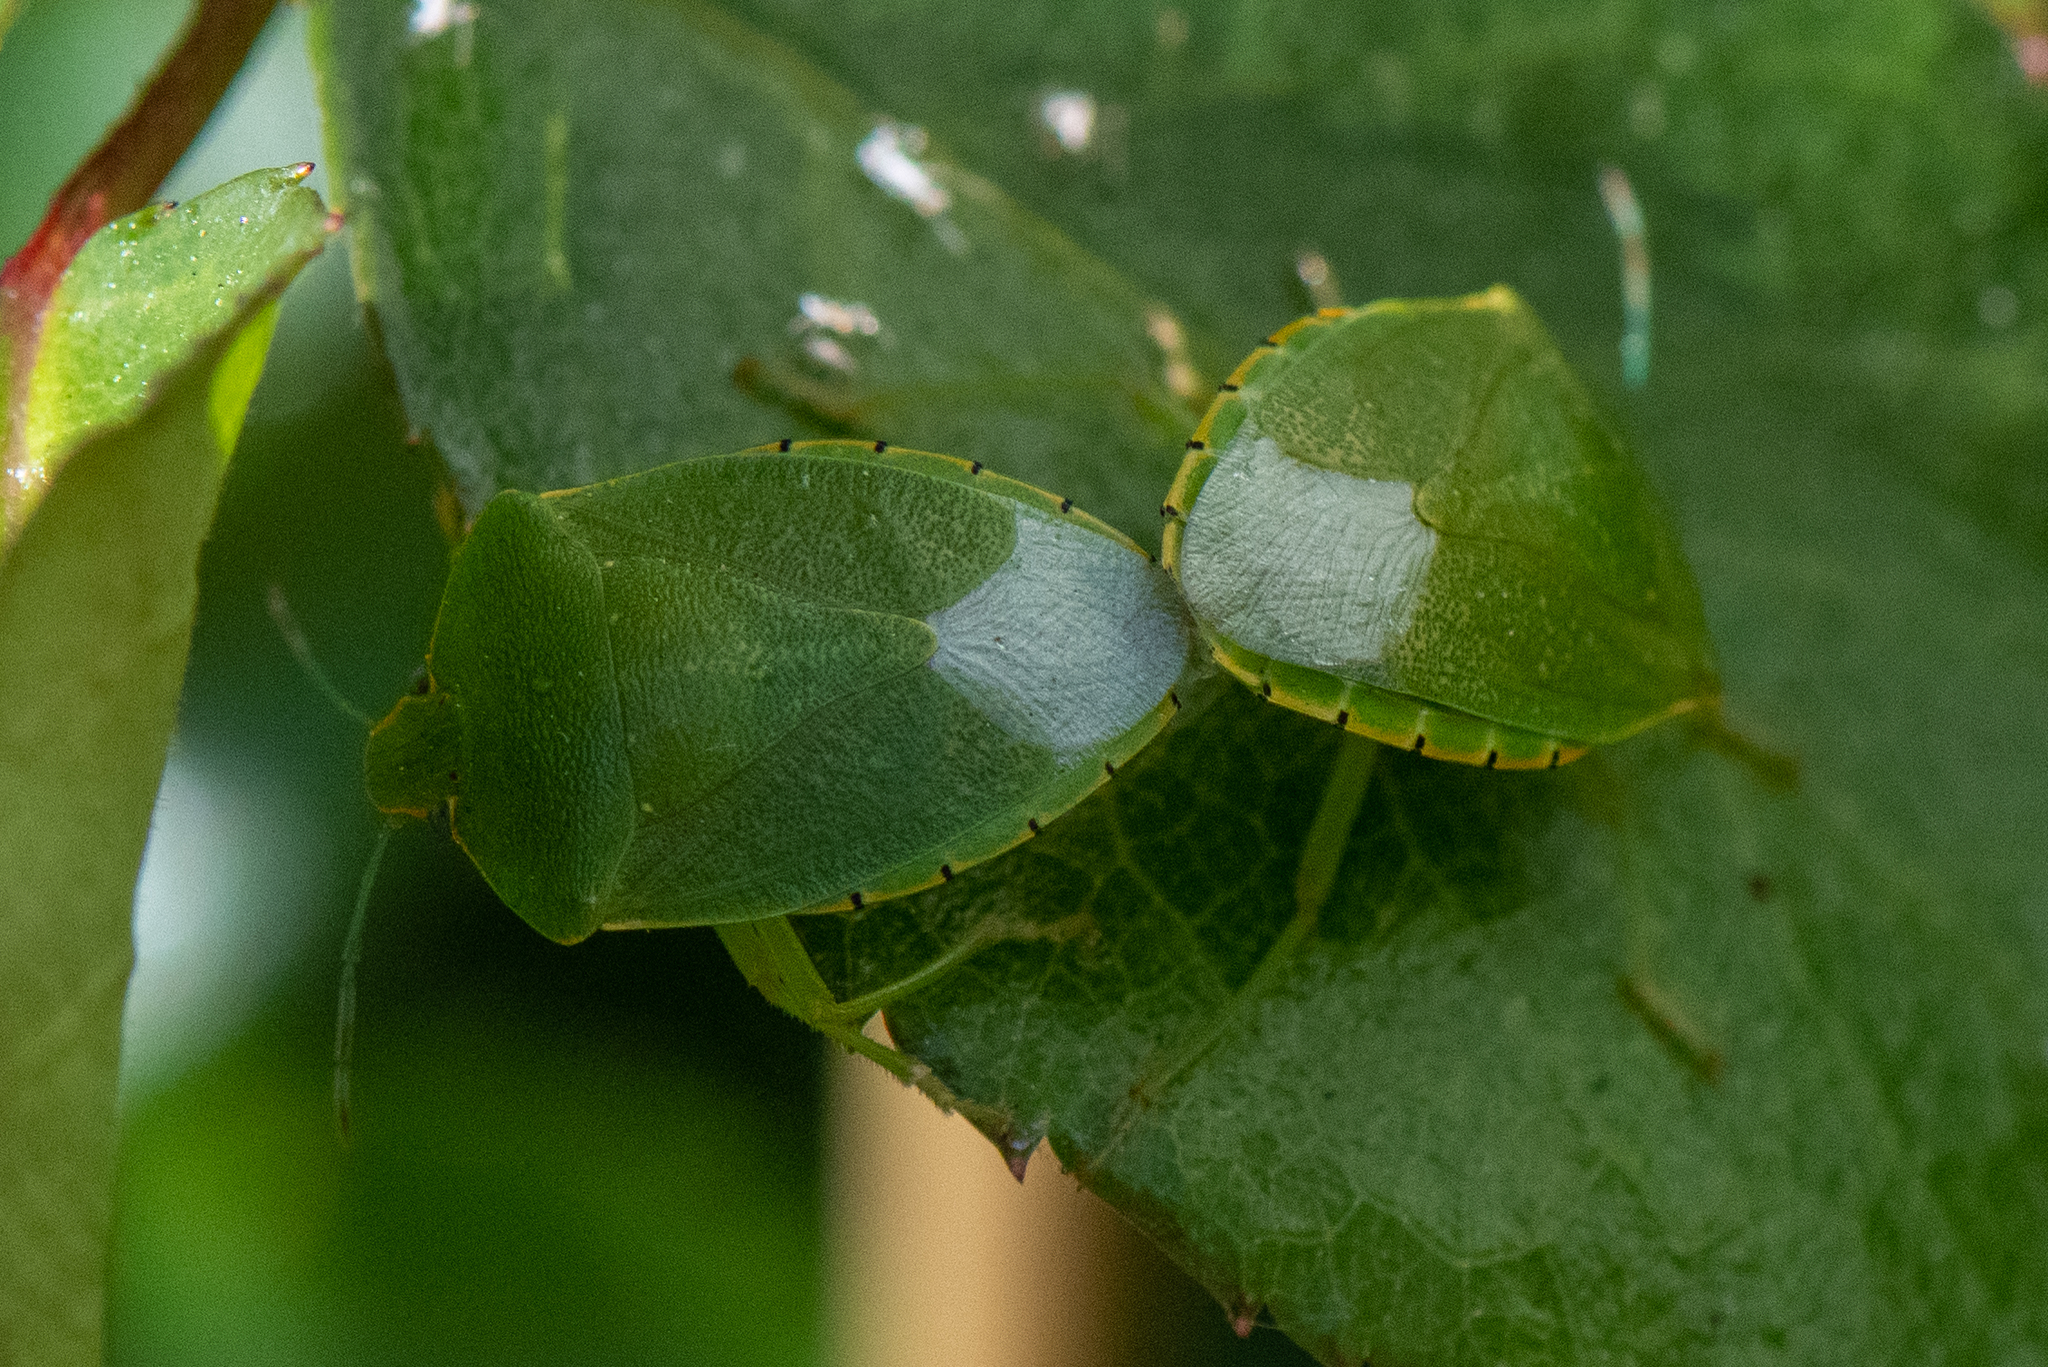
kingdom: Animalia
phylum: Arthropoda
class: Insecta
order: Hemiptera
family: Pentatomidae
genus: Chinavia
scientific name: Chinavia hilaris
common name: Green stink bug
